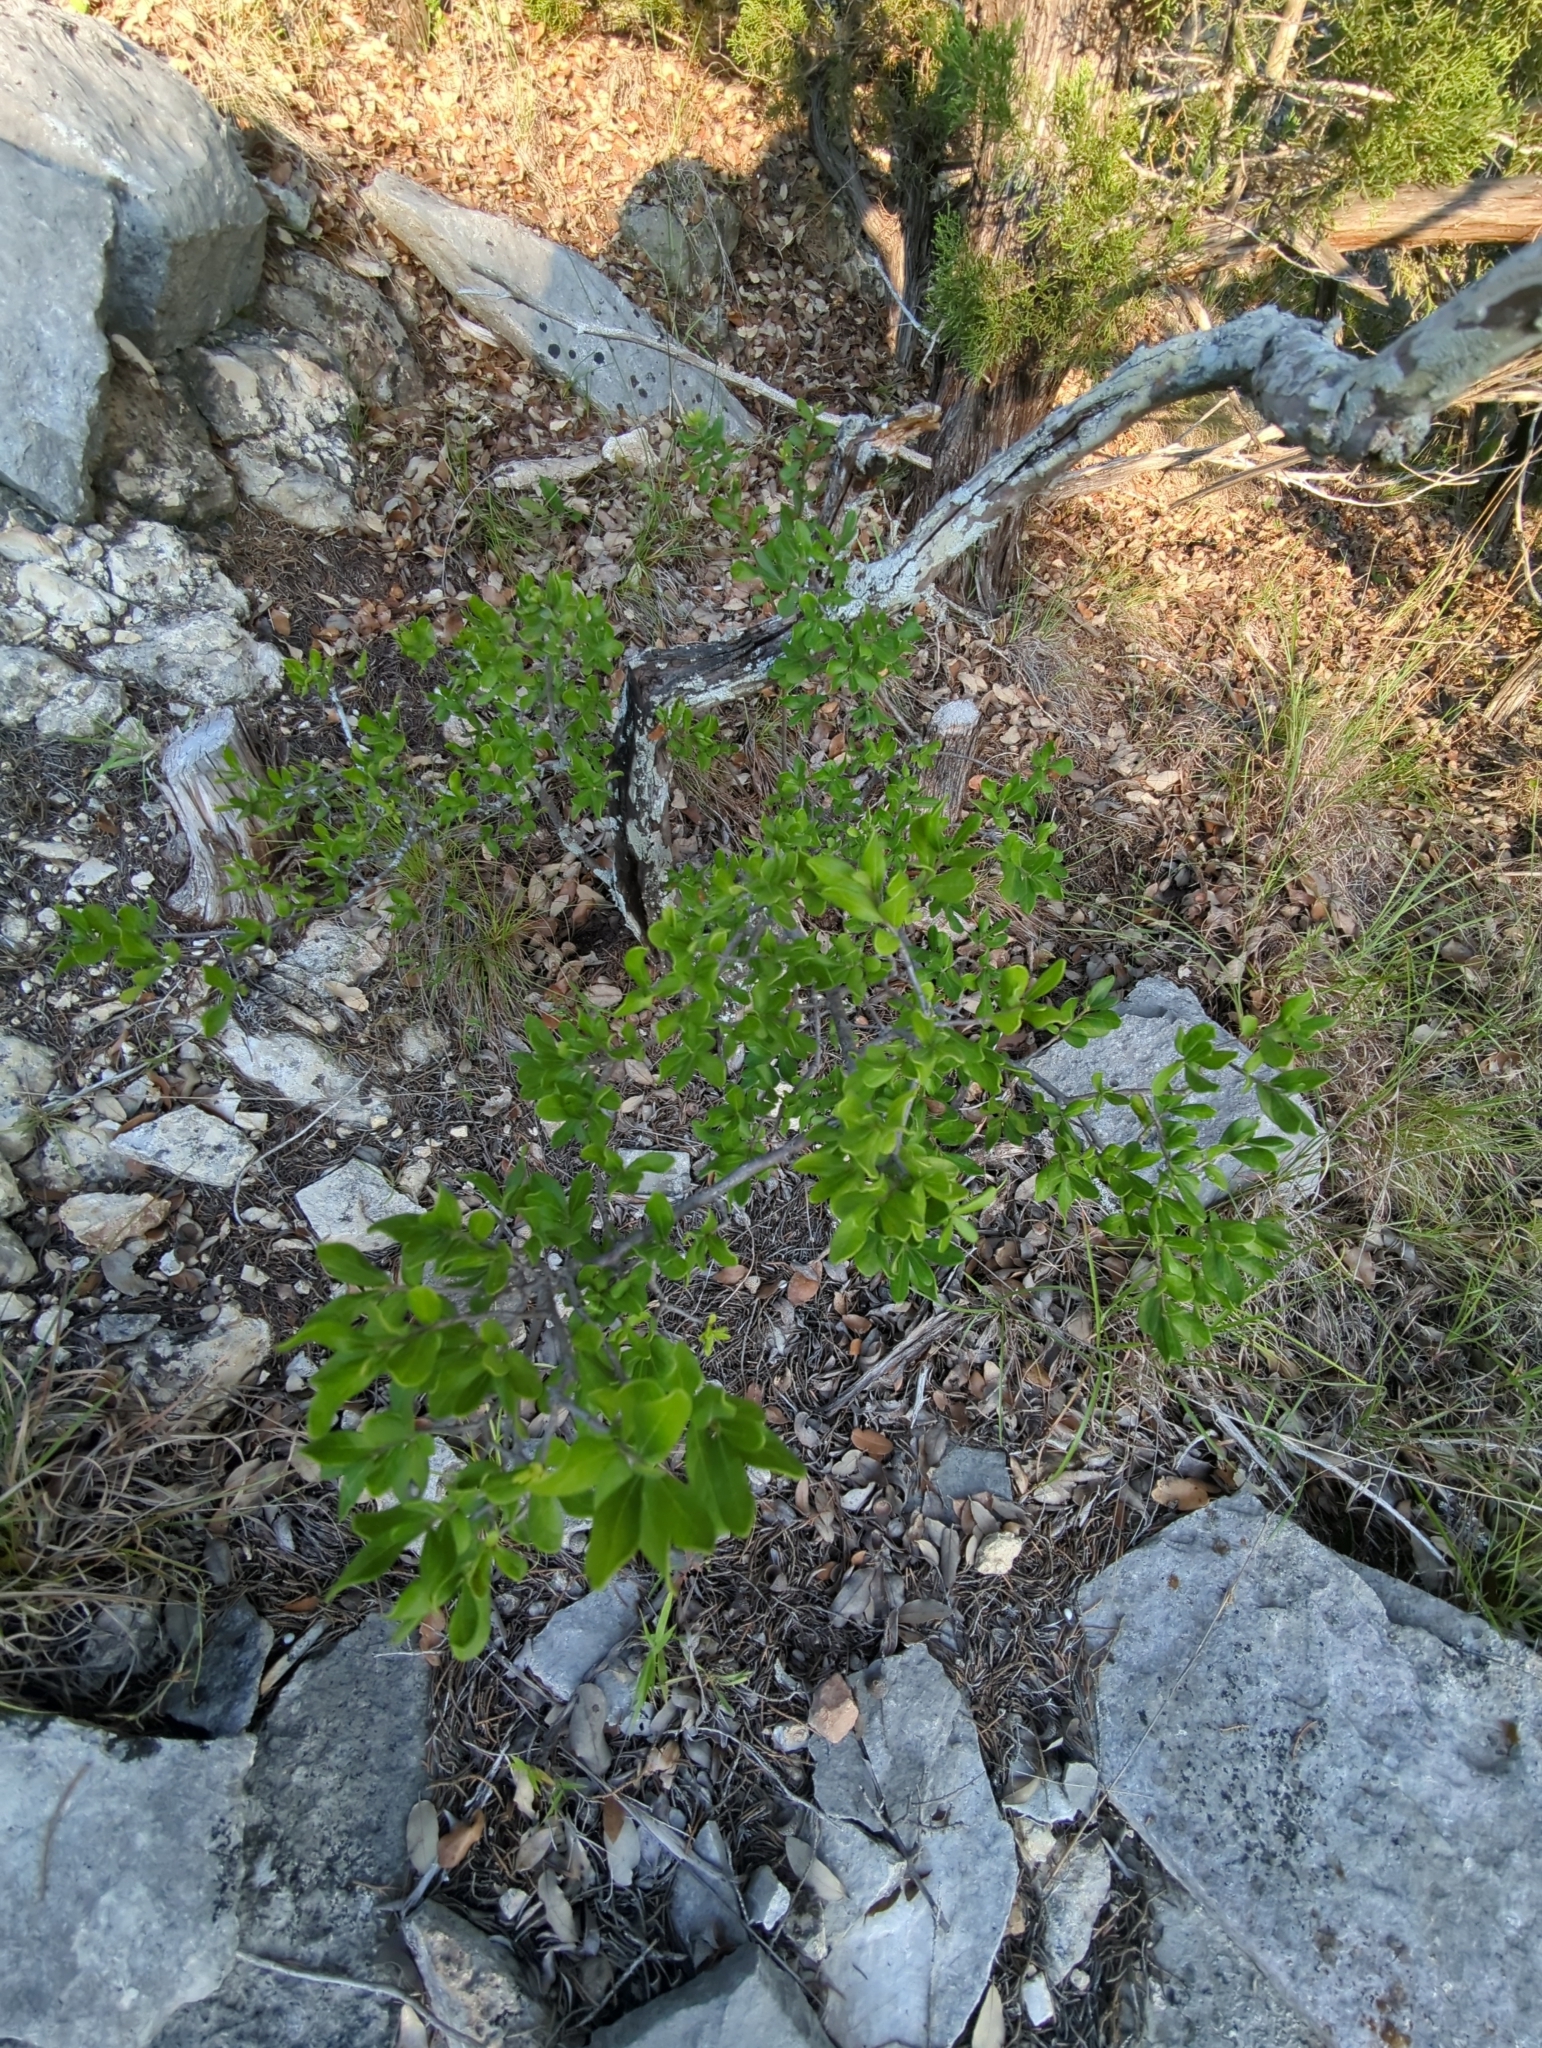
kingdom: Plantae
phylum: Tracheophyta
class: Magnoliopsida
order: Ericales
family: Ebenaceae
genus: Diospyros
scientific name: Diospyros texana
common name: Texas persimmon
